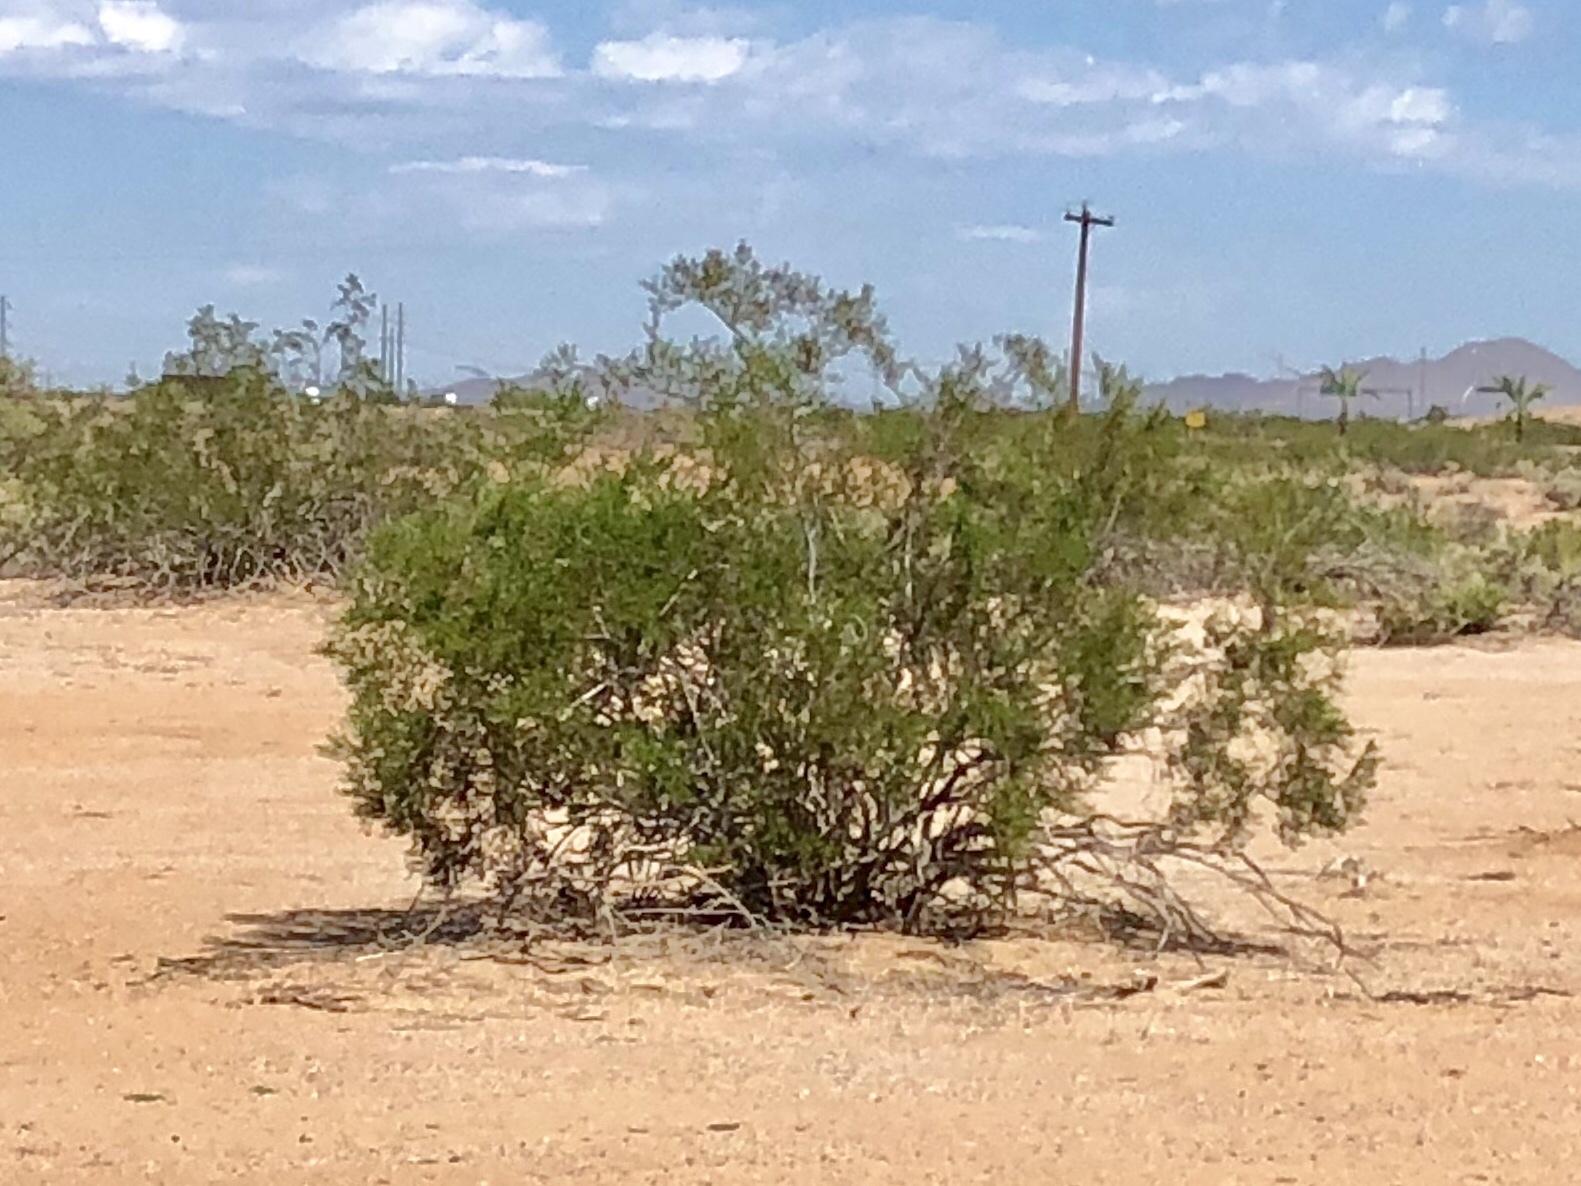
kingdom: Plantae
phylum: Tracheophyta
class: Magnoliopsida
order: Zygophyllales
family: Zygophyllaceae
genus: Larrea
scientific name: Larrea tridentata
